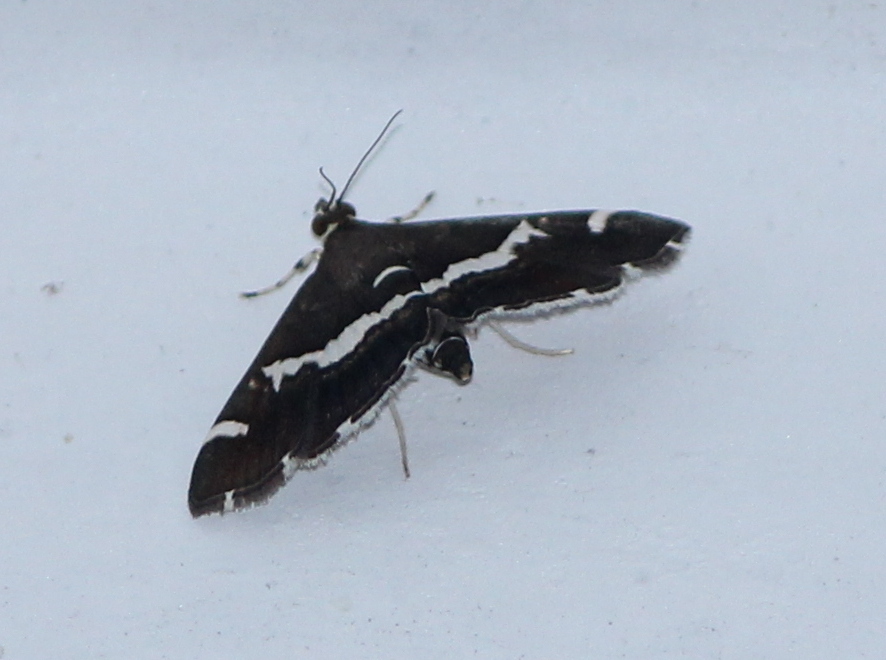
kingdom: Animalia
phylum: Arthropoda
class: Insecta
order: Lepidoptera
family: Crambidae
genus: Spoladea
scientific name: Spoladea recurvalis
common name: Beet webworm moth
